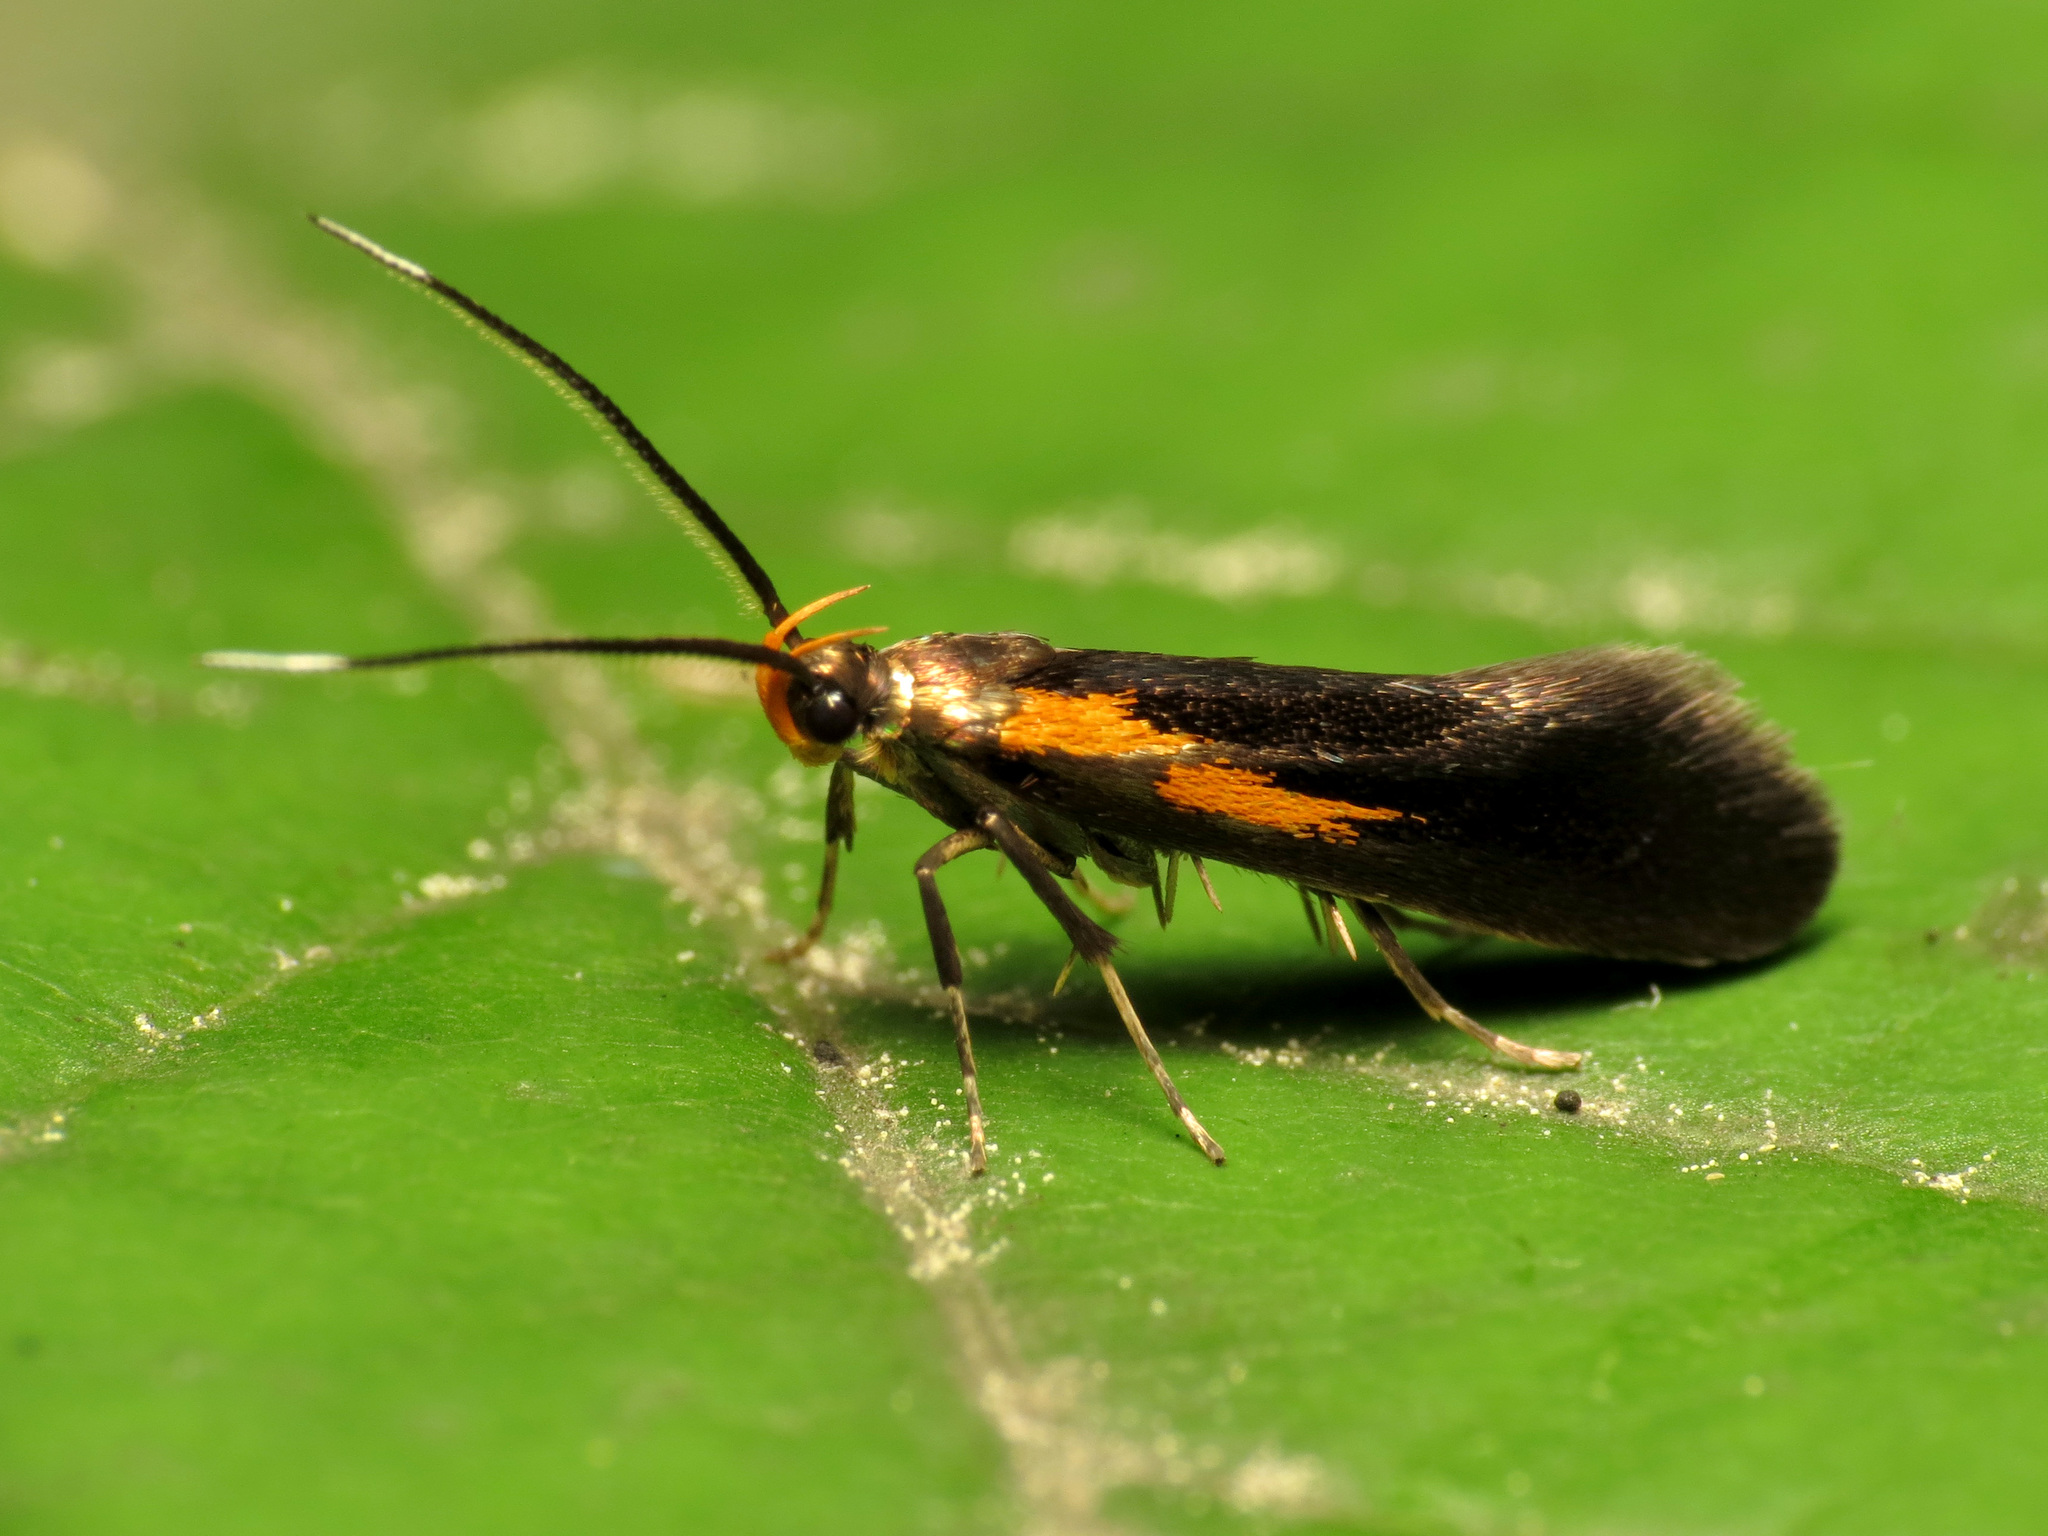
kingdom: Animalia
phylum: Arthropoda
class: Insecta
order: Lepidoptera
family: Oecophoridae
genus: Mathildana
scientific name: Mathildana newmanella
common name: Newman's mathildana moth
